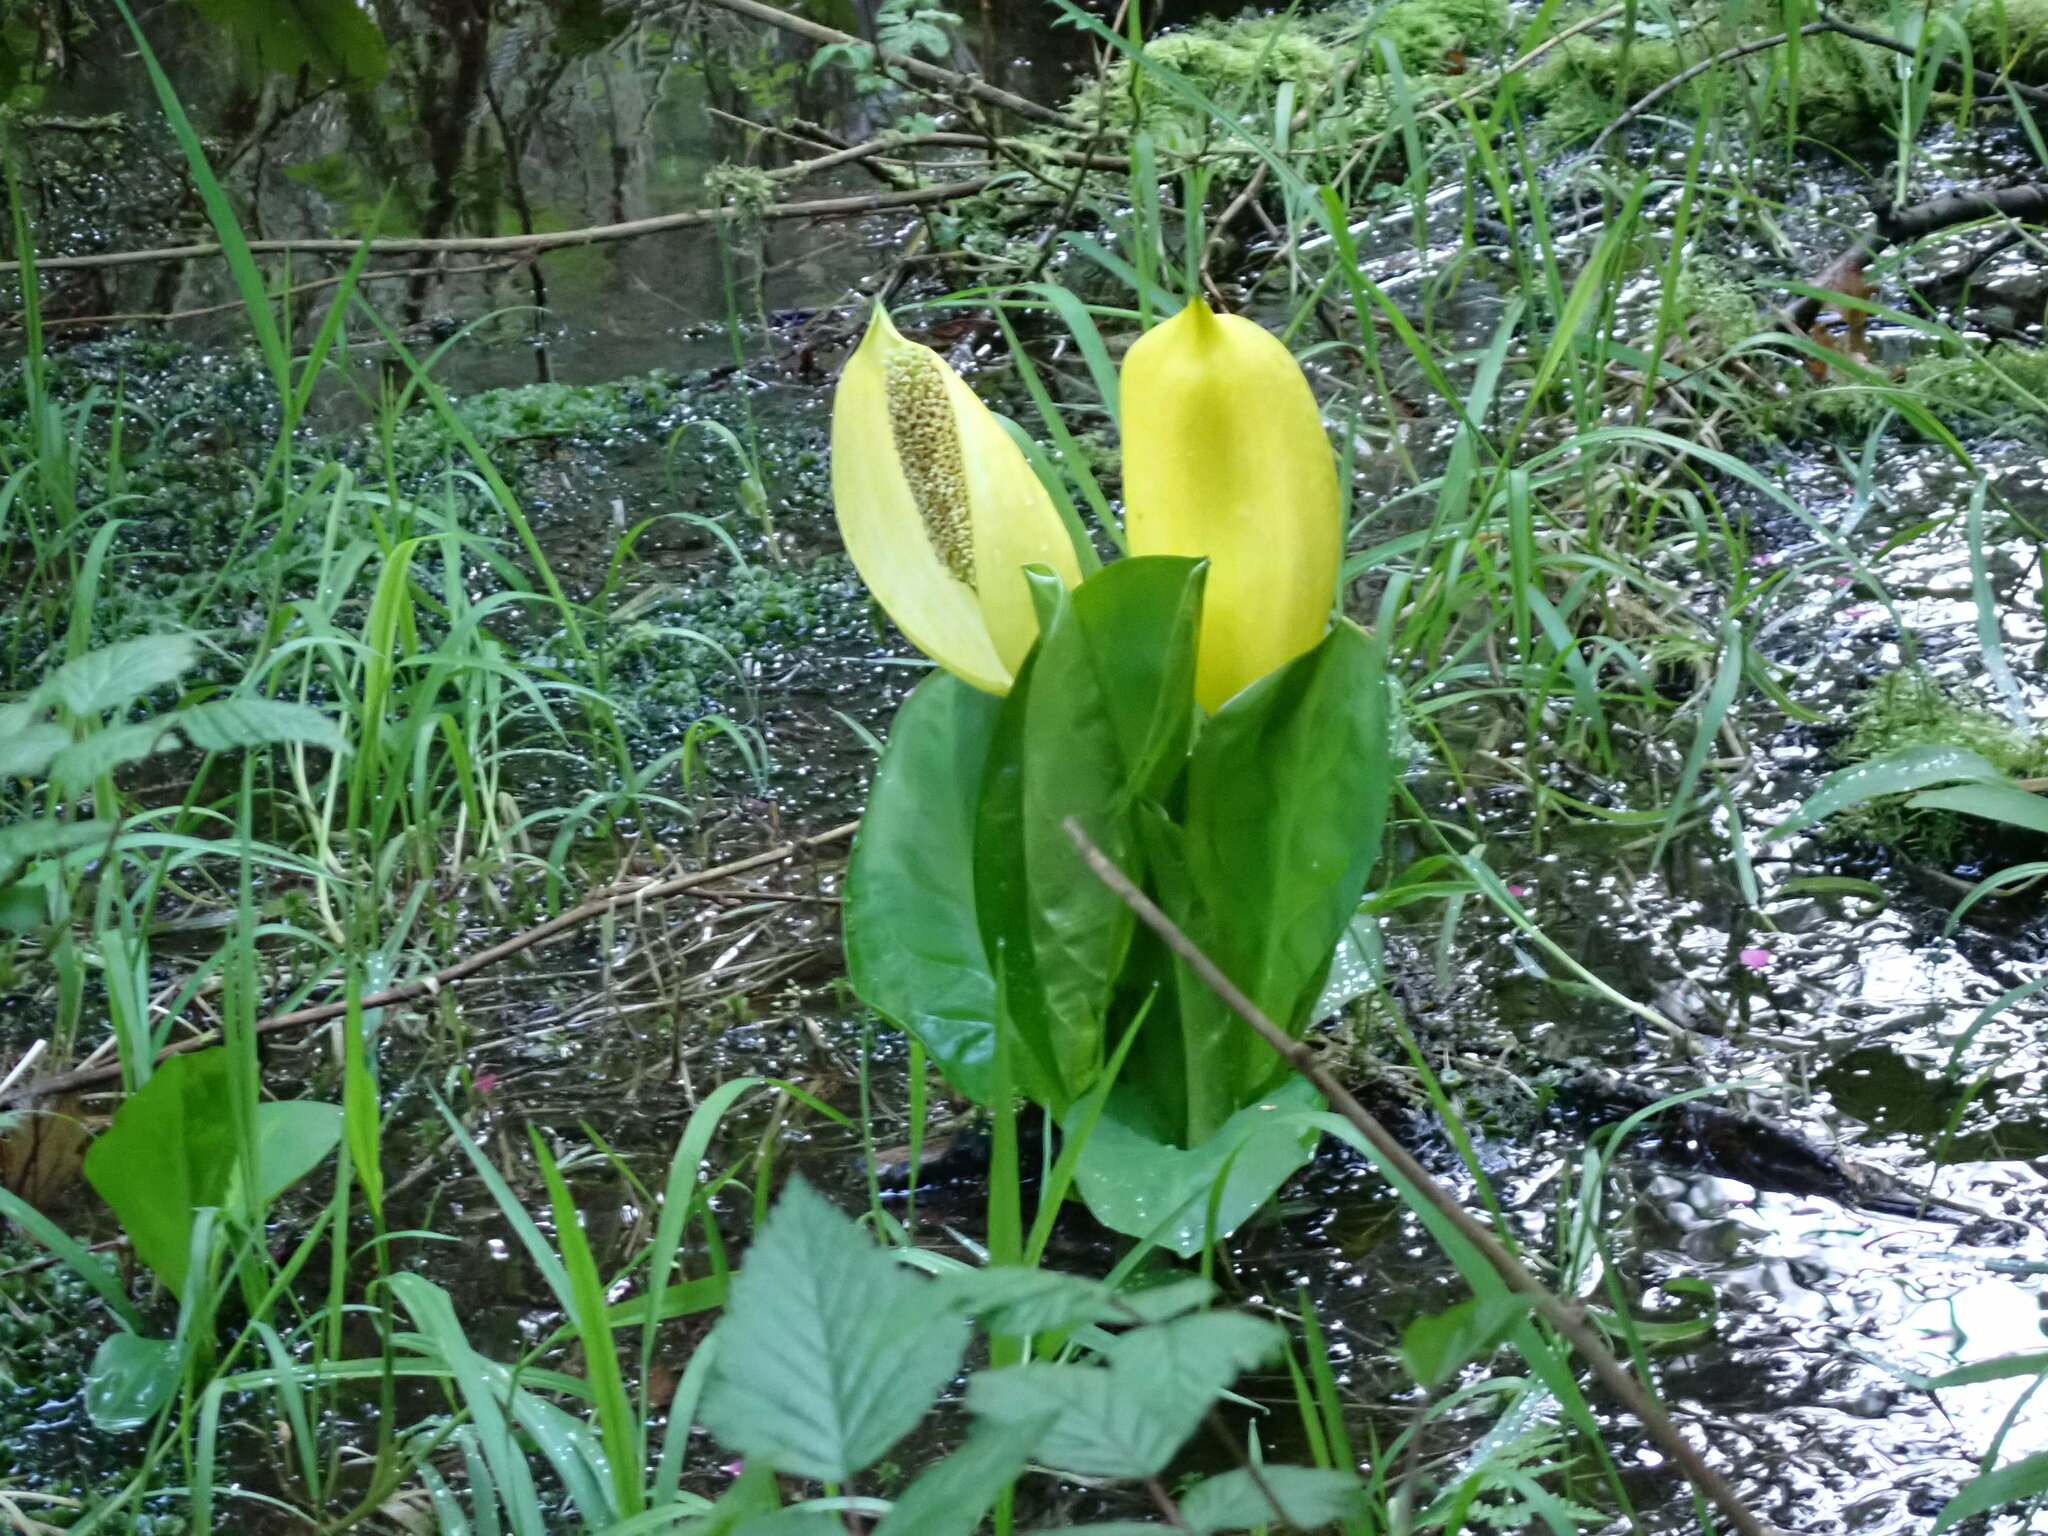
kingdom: Plantae
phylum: Tracheophyta
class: Liliopsida
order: Alismatales
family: Araceae
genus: Lysichiton
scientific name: Lysichiton americanus
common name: American skunk cabbage
